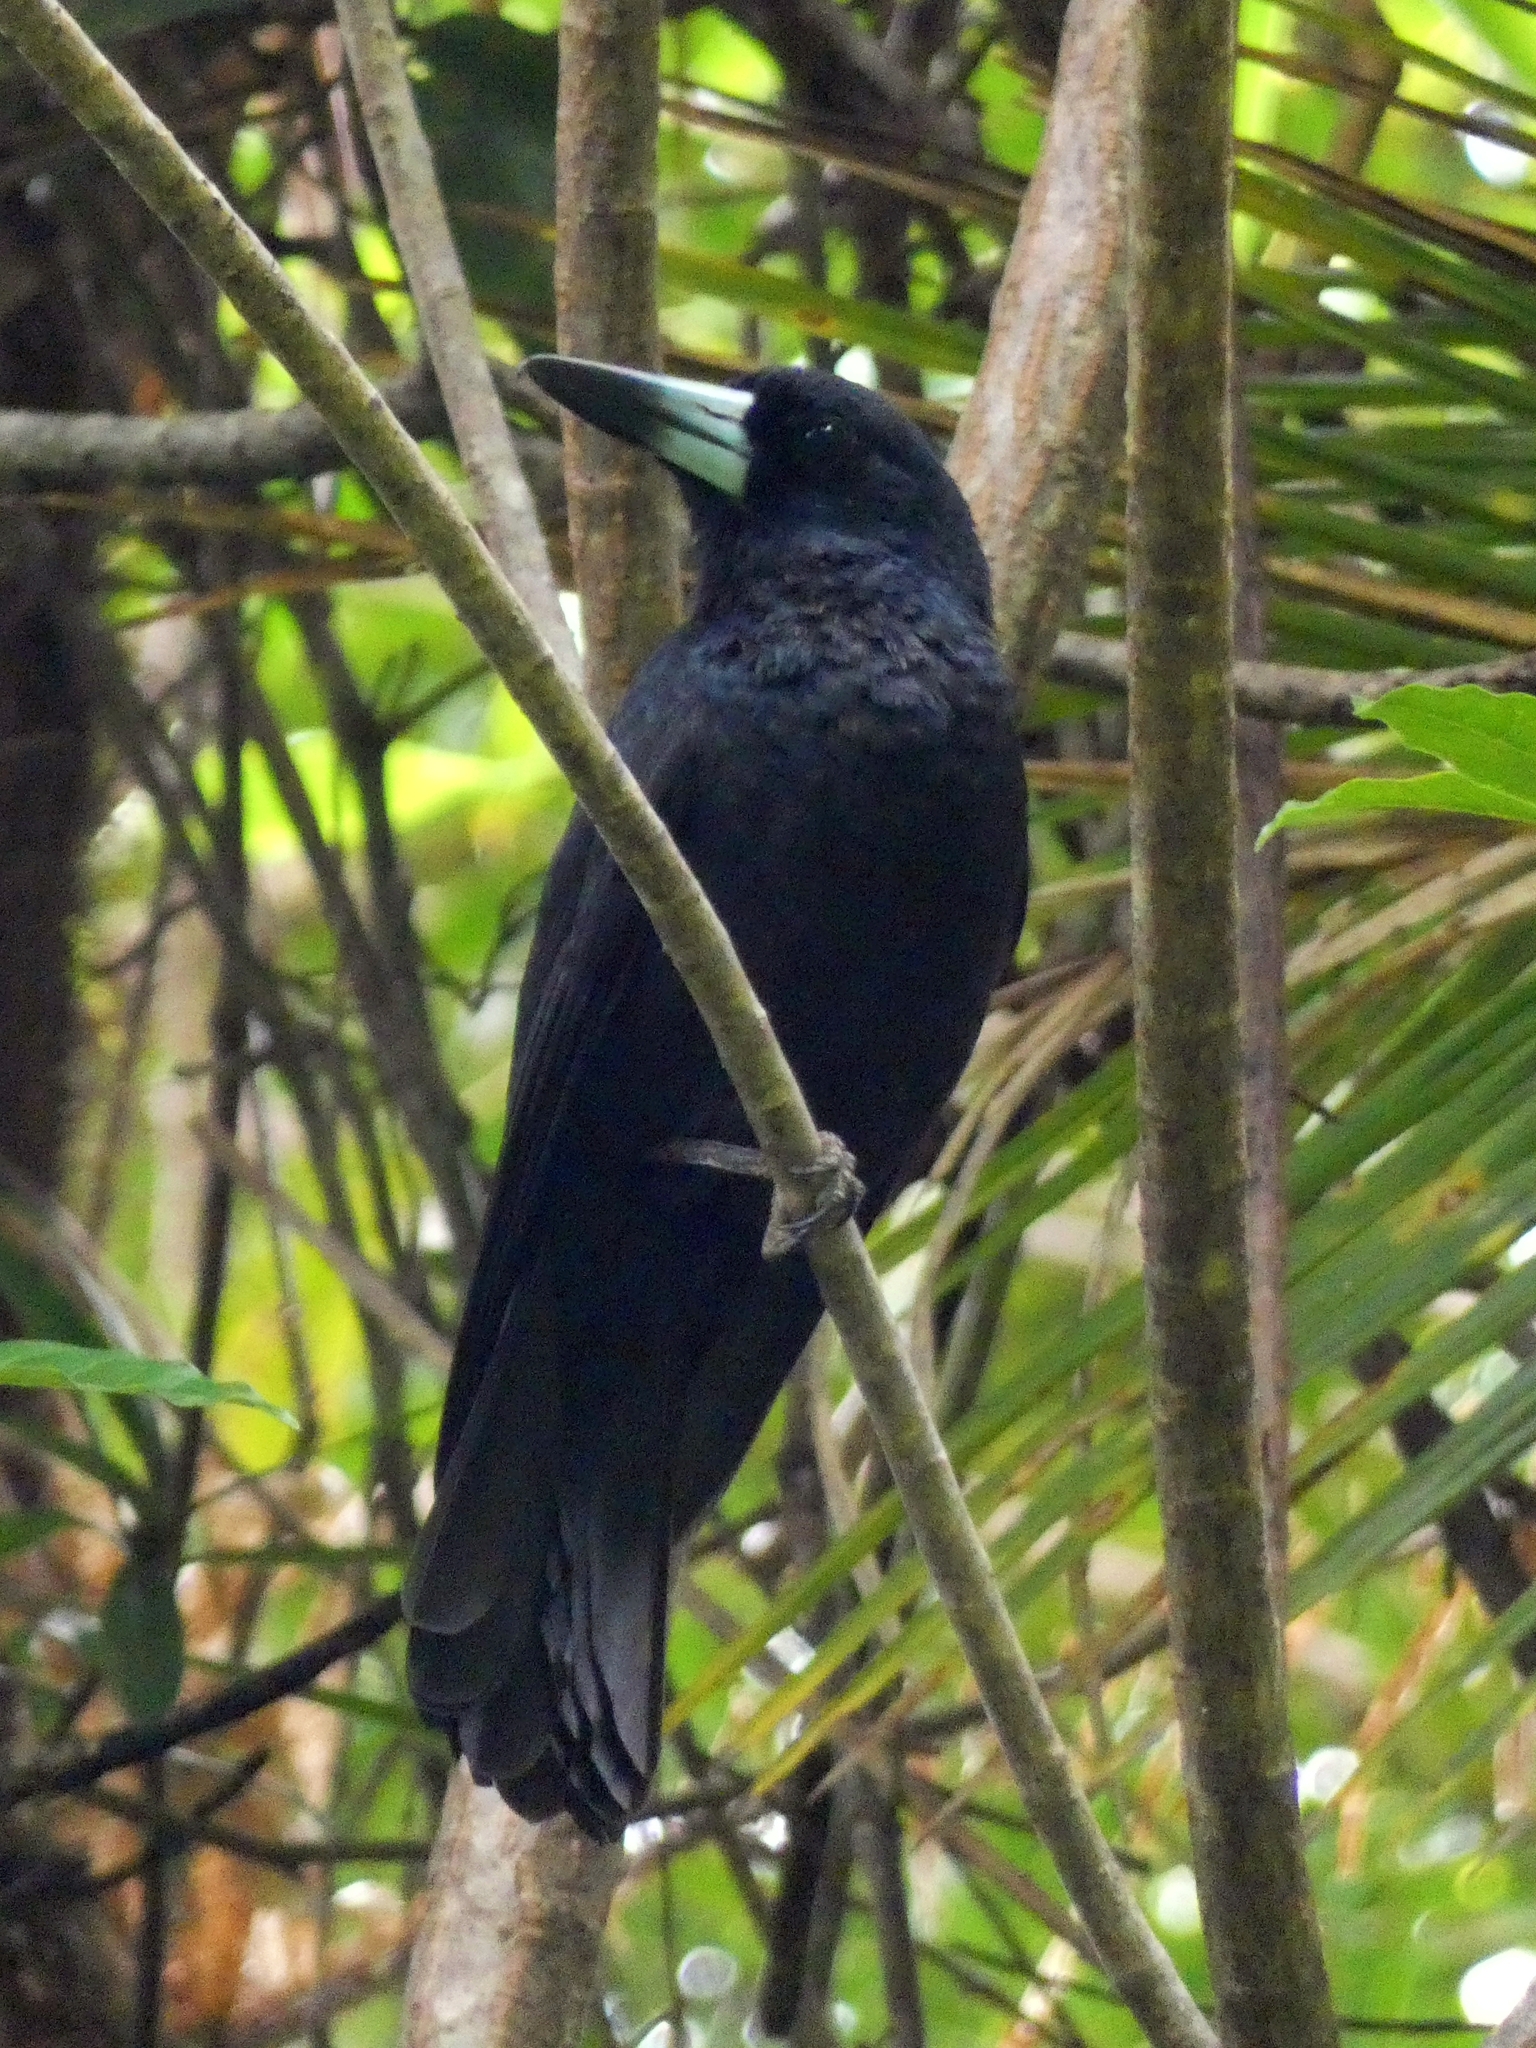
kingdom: Animalia
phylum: Chordata
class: Aves
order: Passeriformes
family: Artamidae
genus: Melloria
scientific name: Melloria quoyi
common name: Black butcherbird
